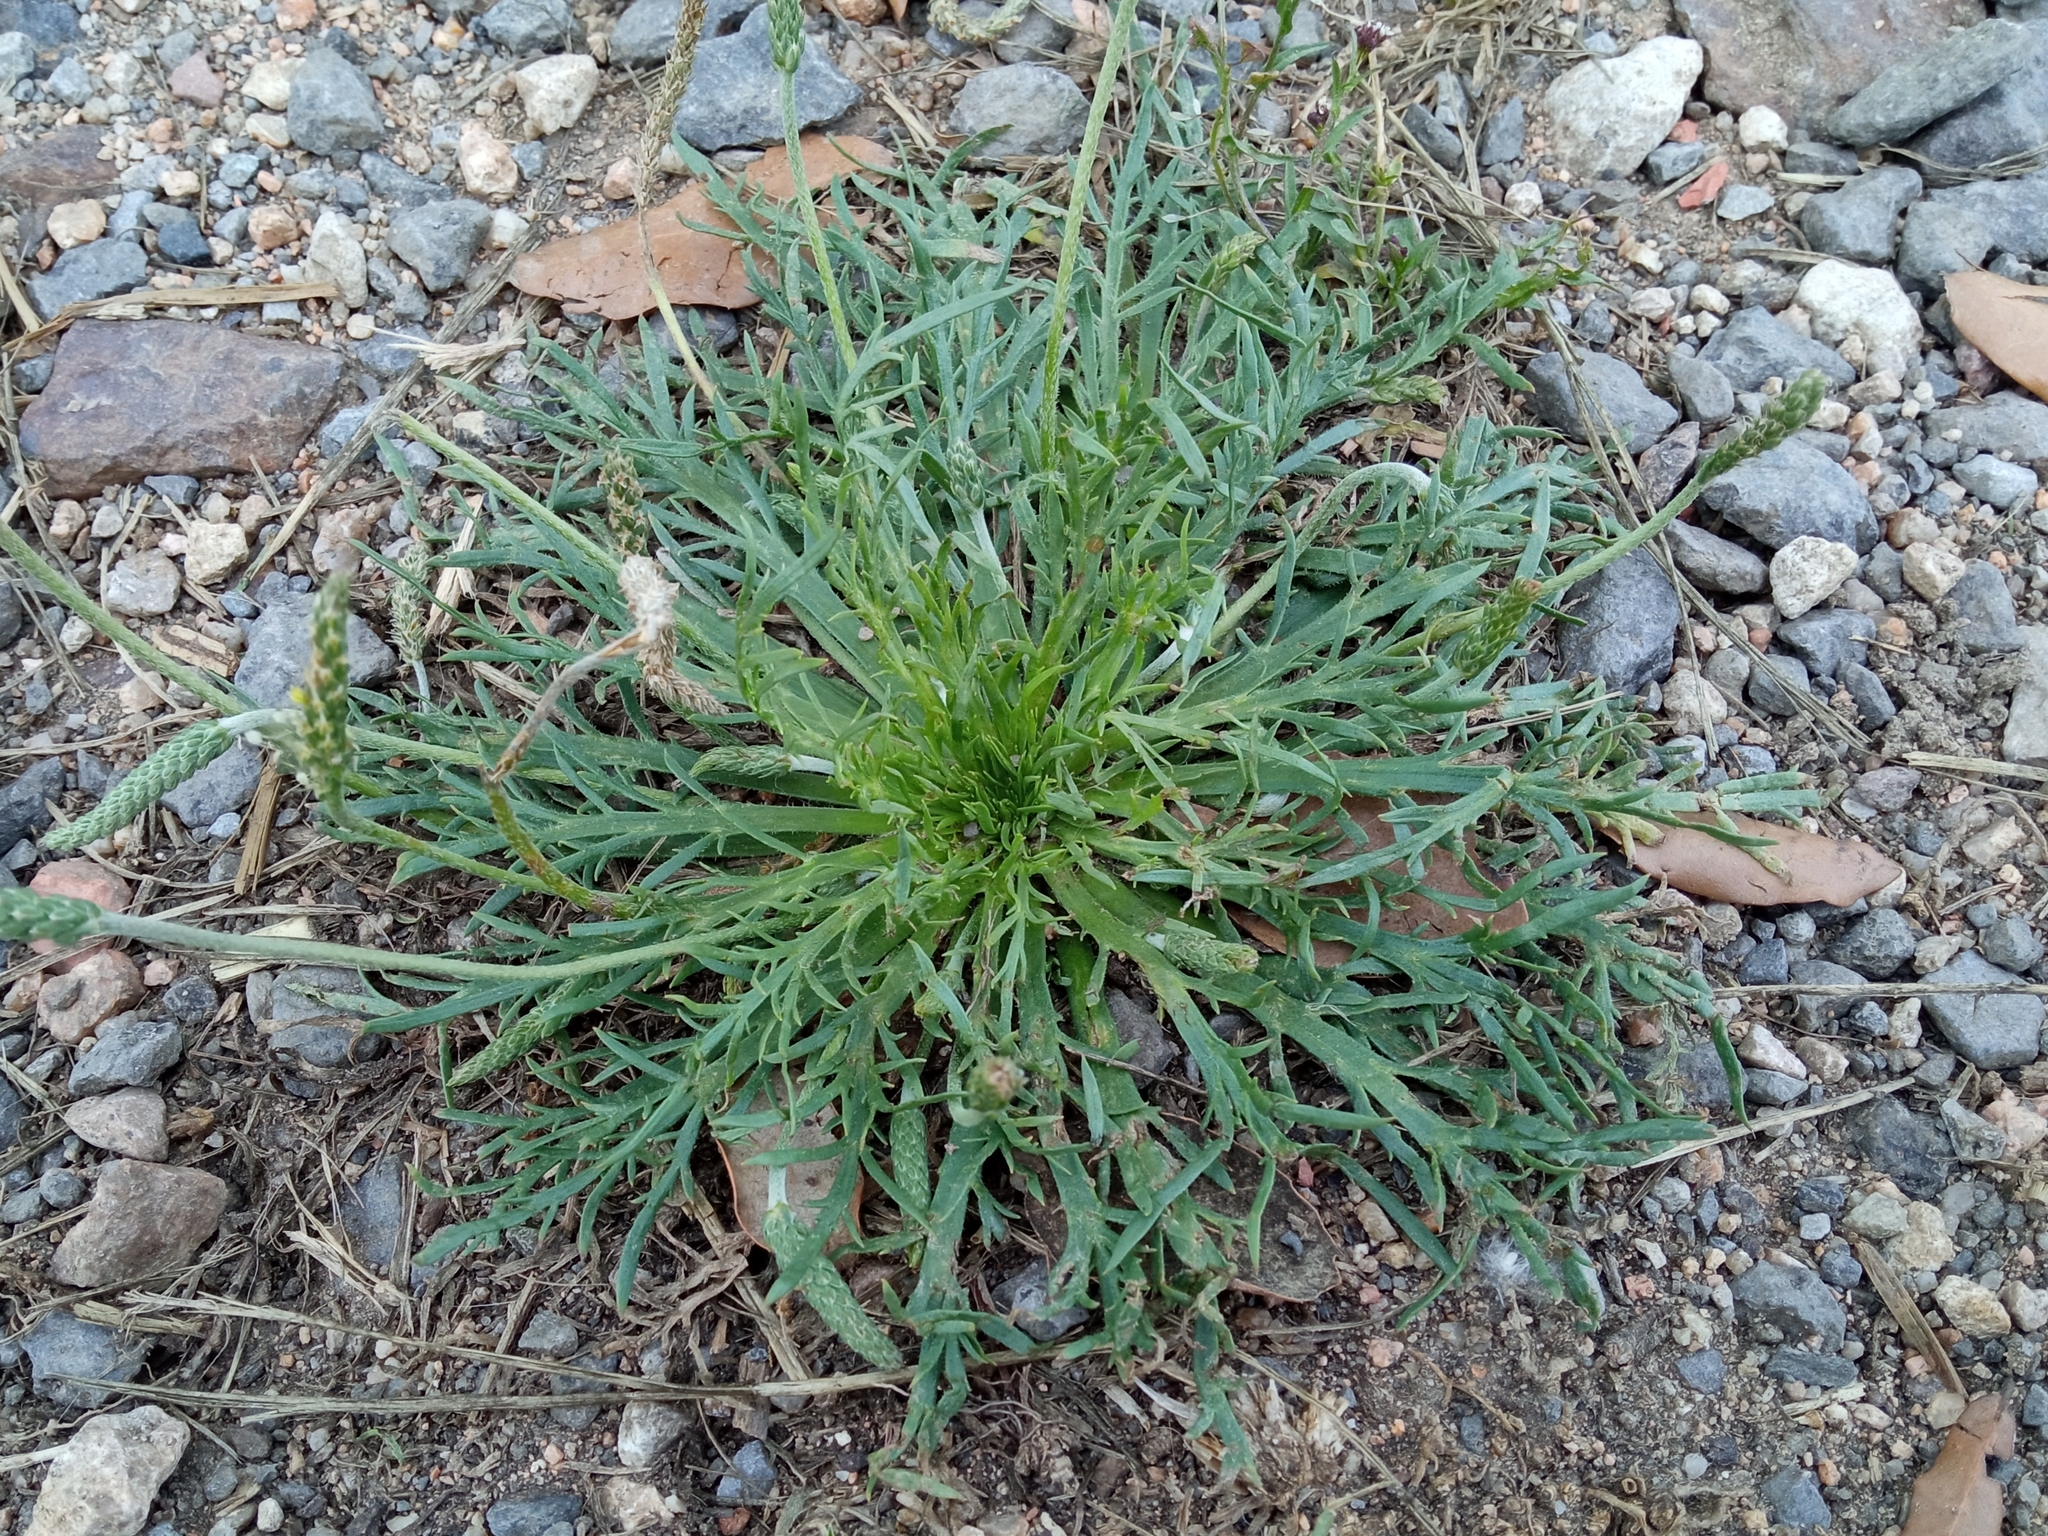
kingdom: Plantae
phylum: Tracheophyta
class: Magnoliopsida
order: Lamiales
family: Plantaginaceae
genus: Plantago
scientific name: Plantago coronopus
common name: Buck's-horn plantain
